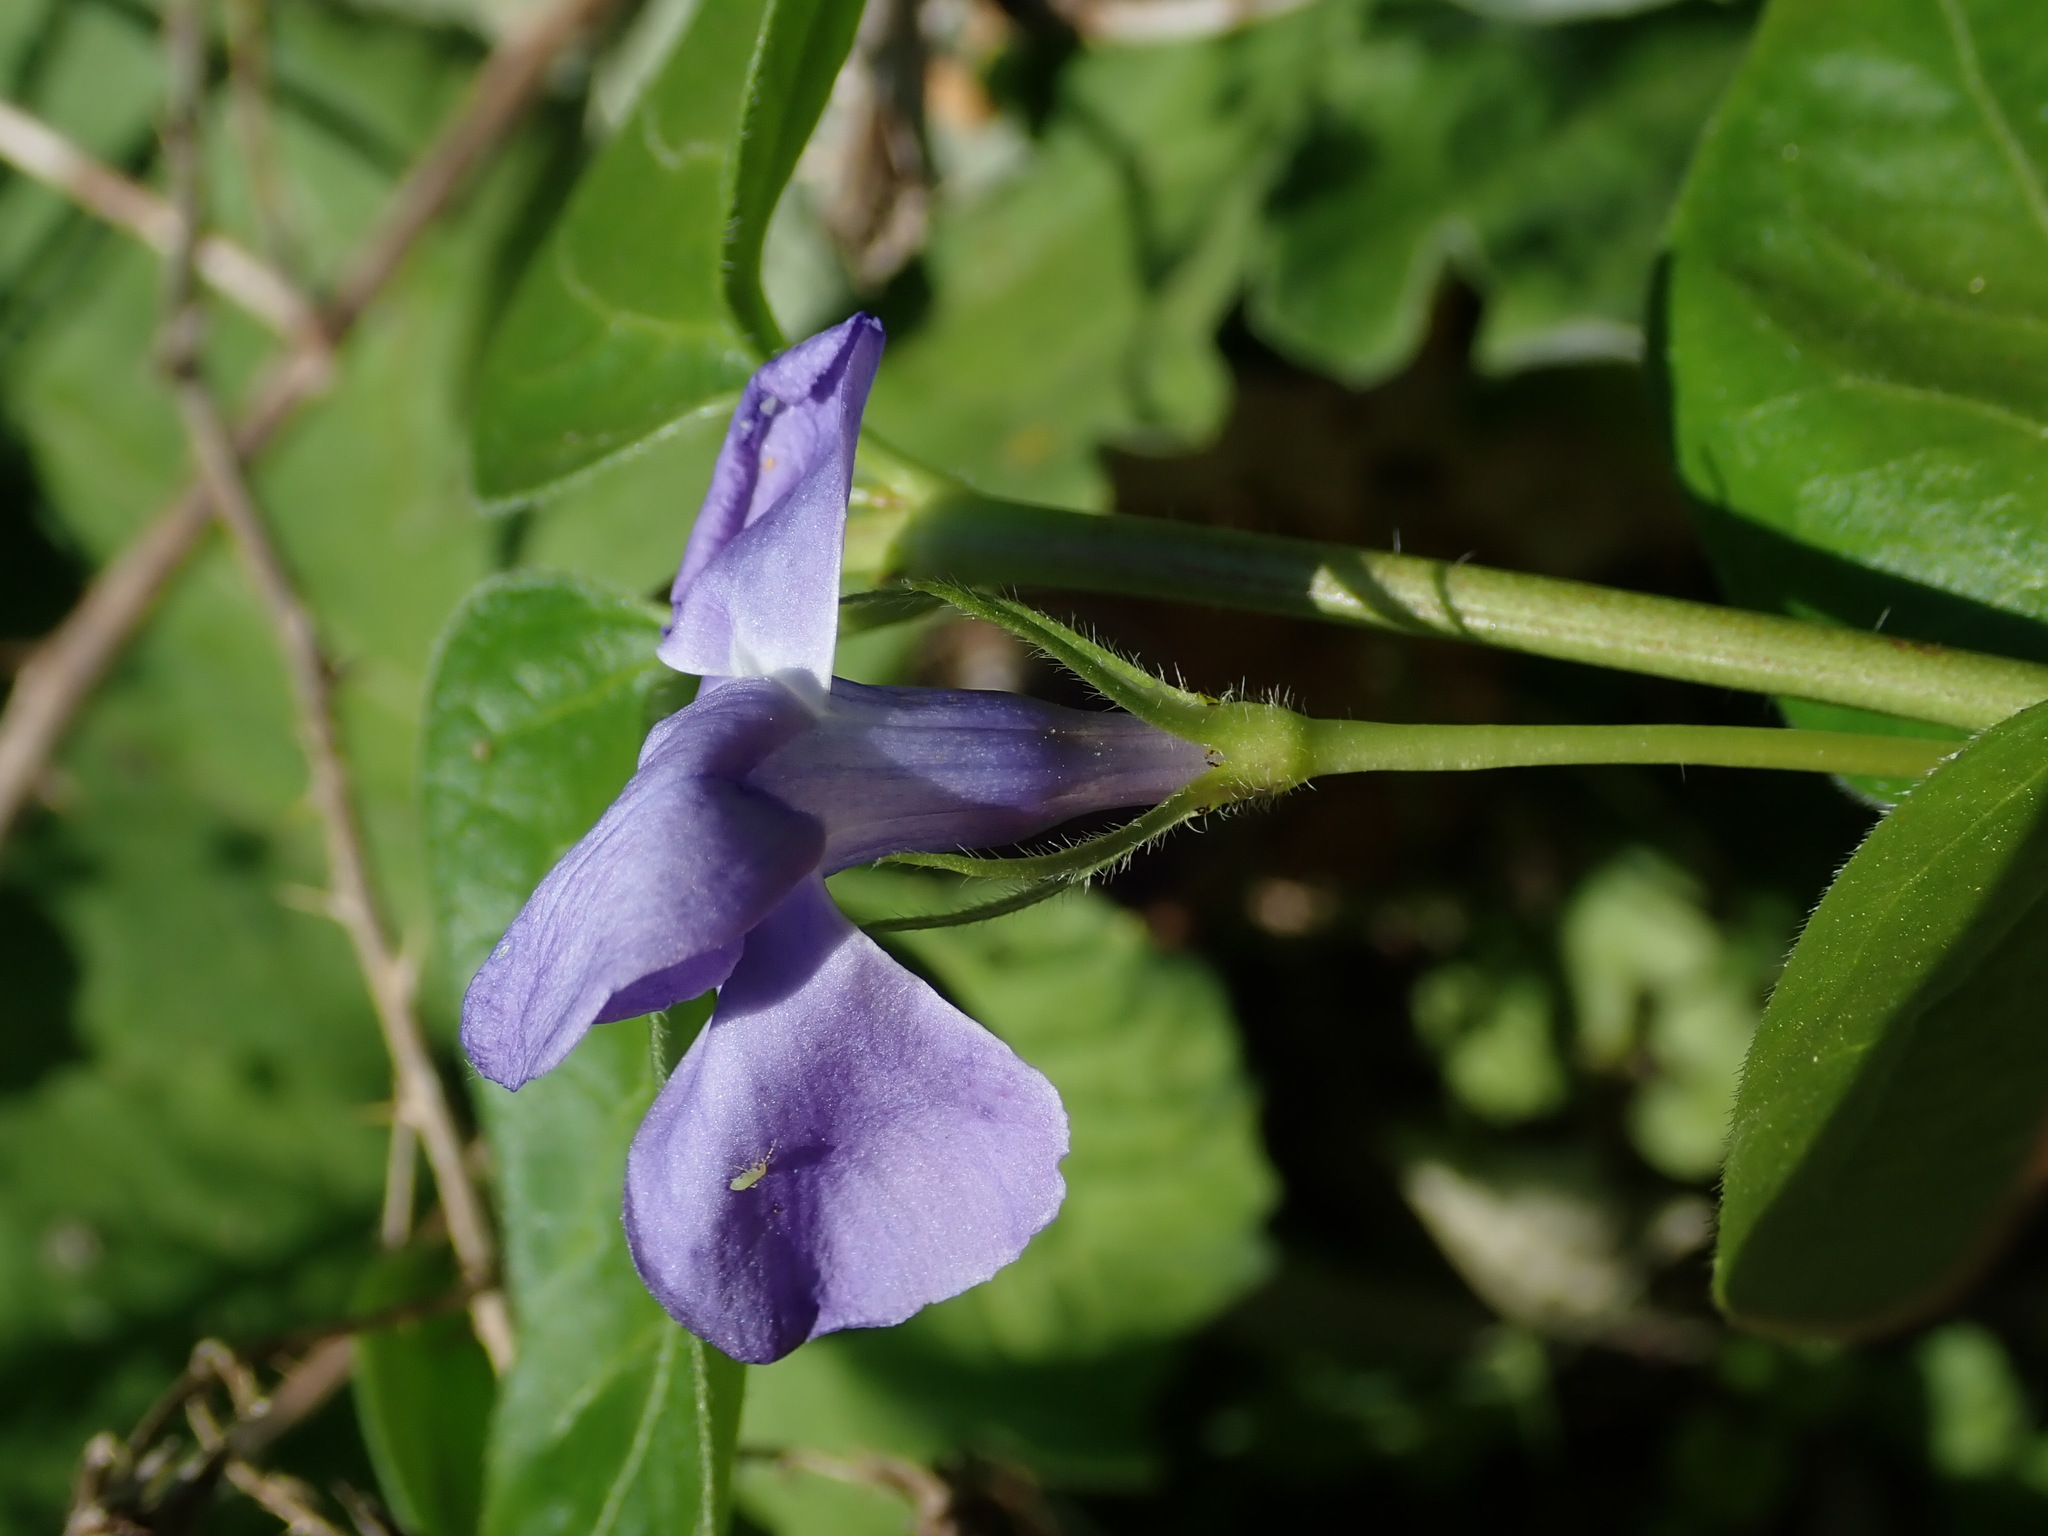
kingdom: Plantae
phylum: Tracheophyta
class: Magnoliopsida
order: Gentianales
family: Apocynaceae
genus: Vinca
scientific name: Vinca major
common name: Greater periwinkle
